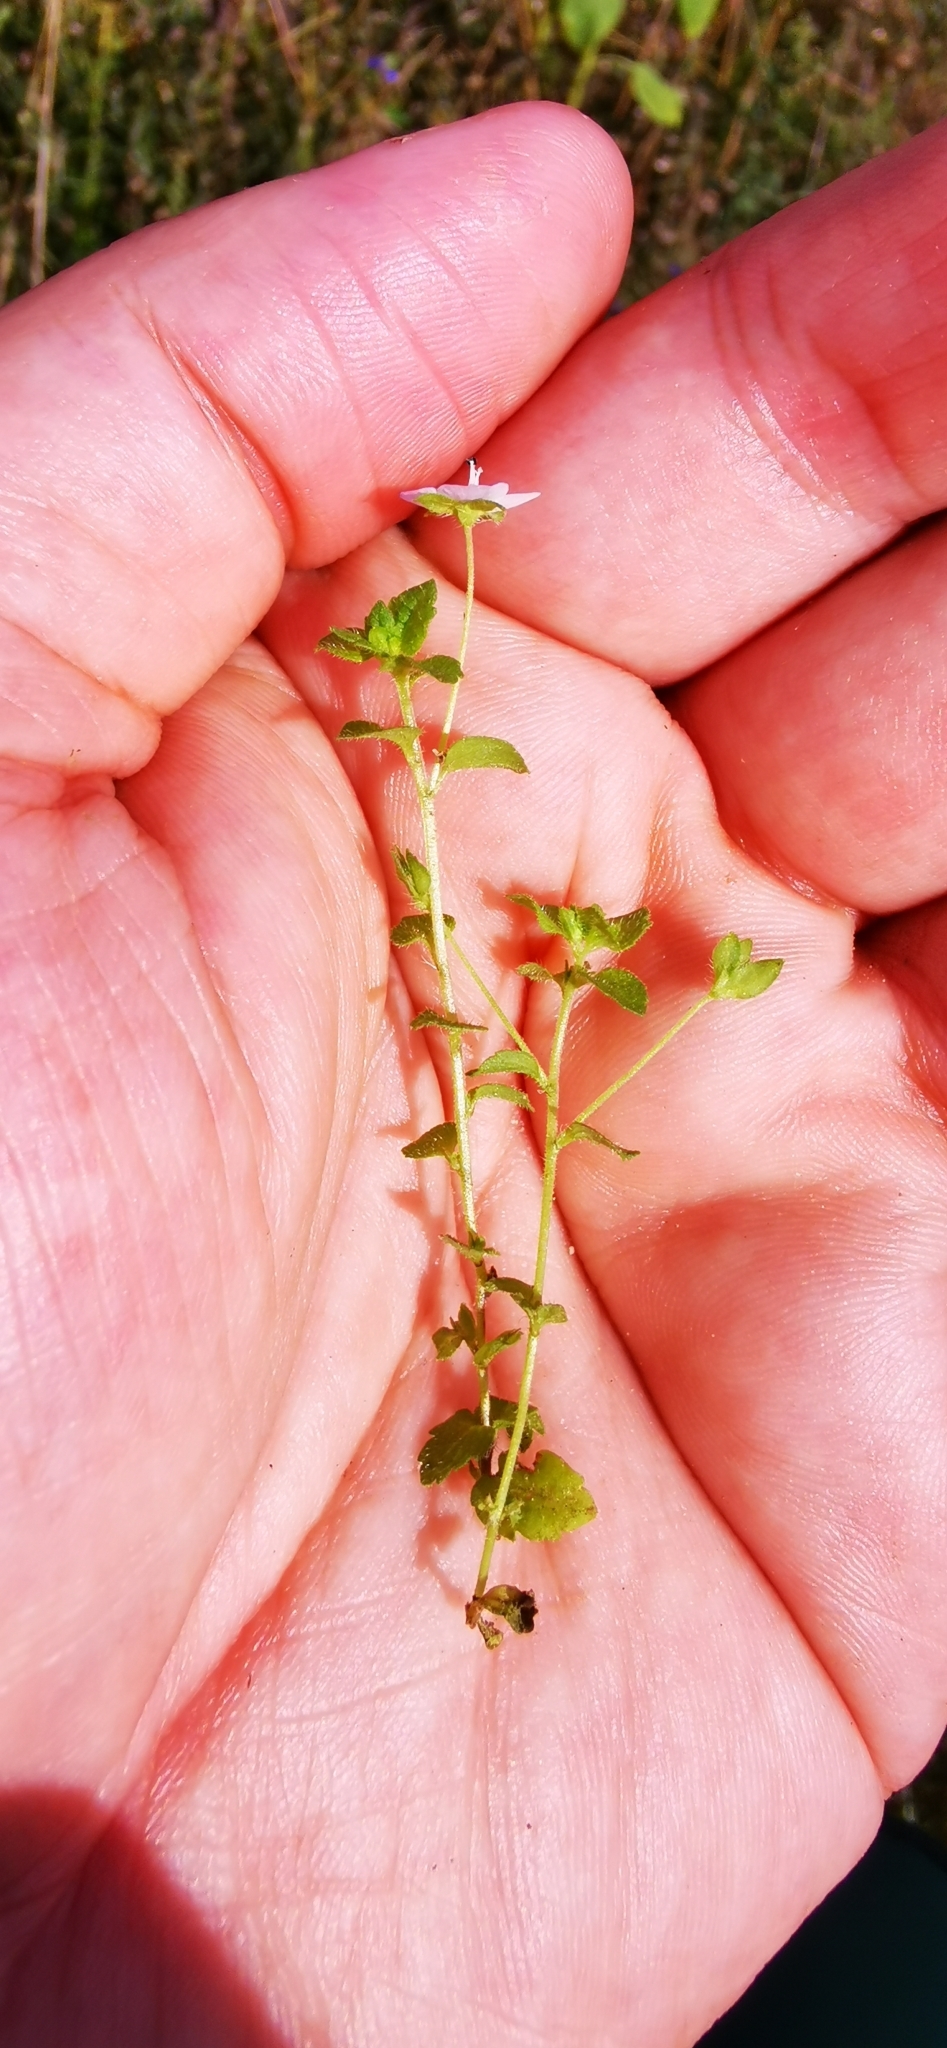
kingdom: Plantae
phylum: Tracheophyta
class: Magnoliopsida
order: Lamiales
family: Plantaginaceae
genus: Veronica
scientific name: Veronica filiformis
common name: Slender speedwell
